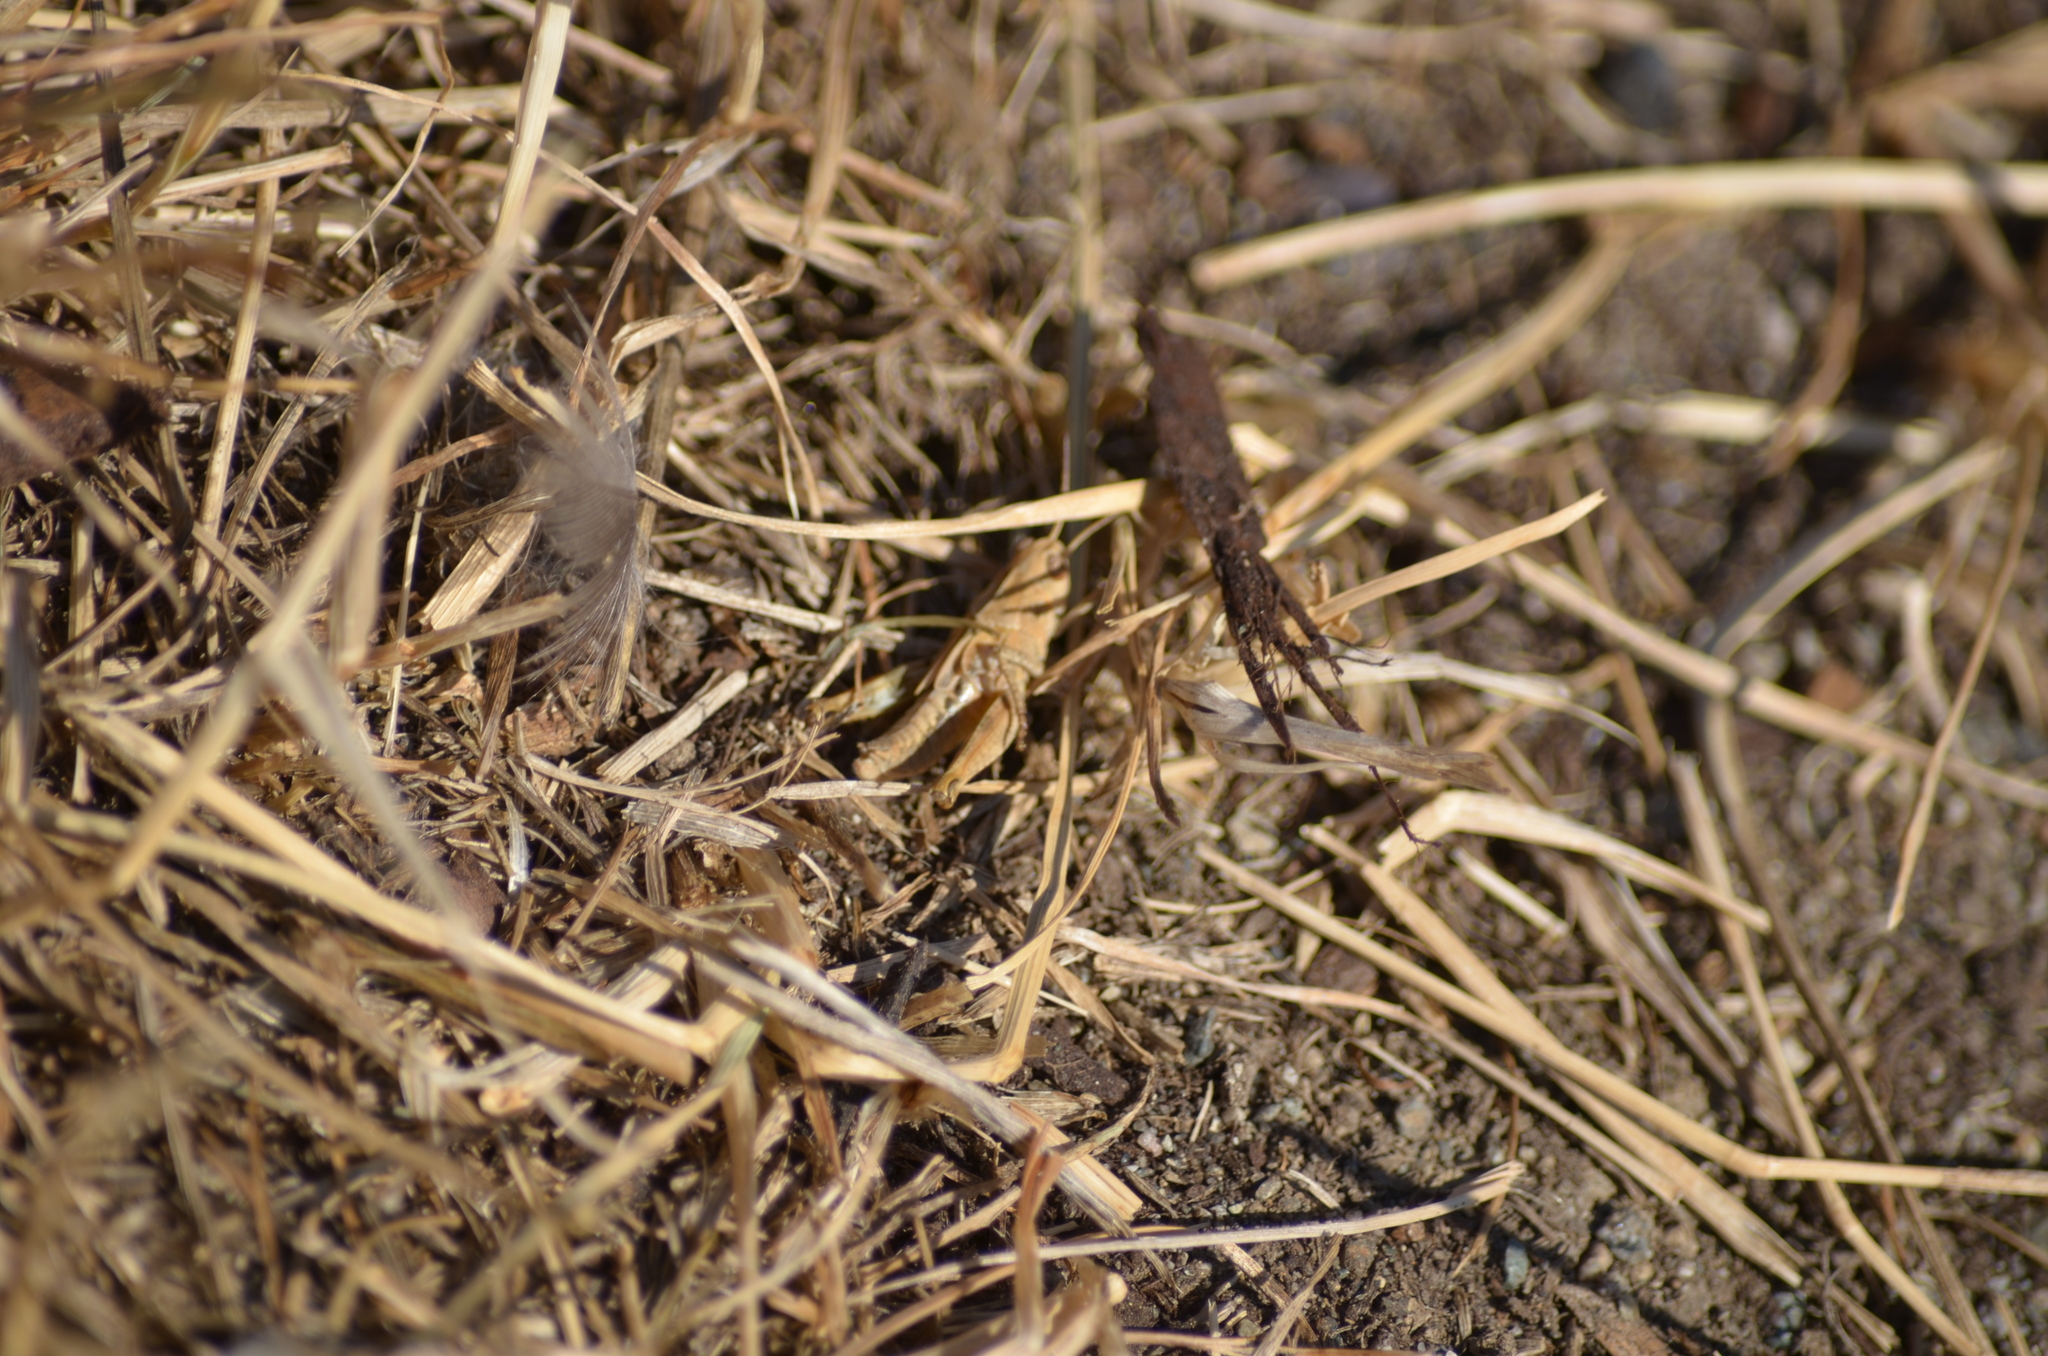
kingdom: Animalia
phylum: Arthropoda
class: Insecta
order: Orthoptera
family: Acrididae
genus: Camnula
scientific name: Camnula pellucida
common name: Clear-winged grasshopper
